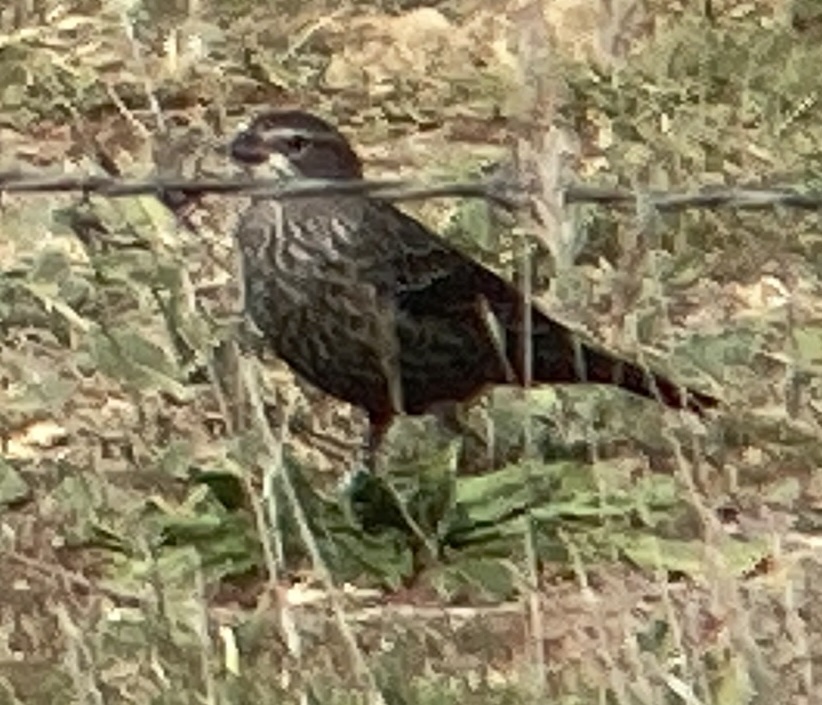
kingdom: Animalia
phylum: Chordata
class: Aves
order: Passeriformes
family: Icteridae
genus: Agelaius
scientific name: Agelaius tricolor
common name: Tricolored blackbird
